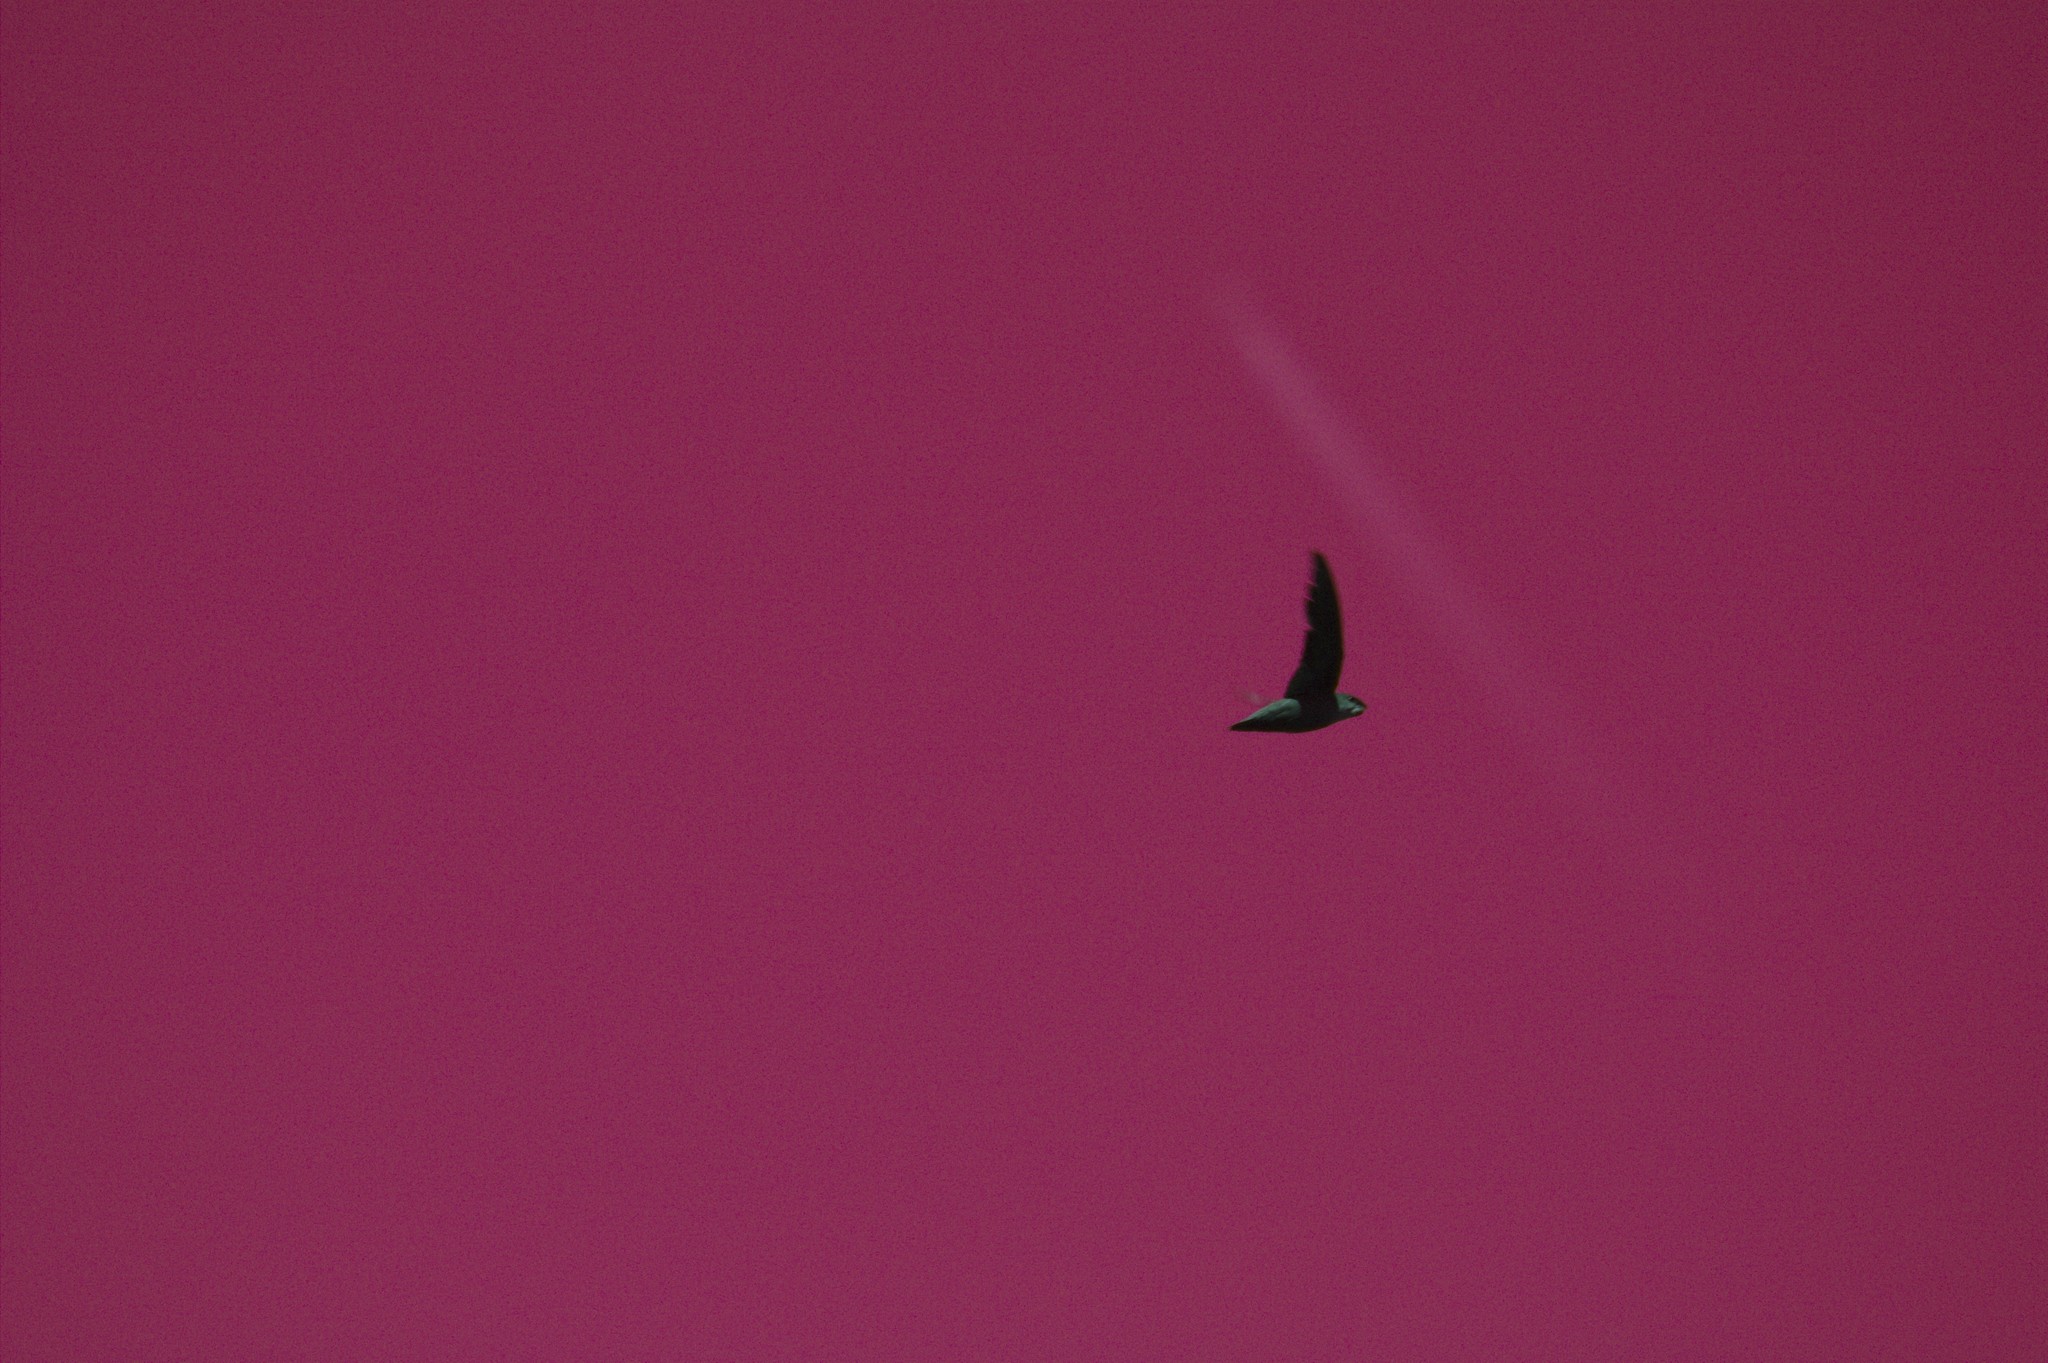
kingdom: Animalia
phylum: Chordata
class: Aves
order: Apodiformes
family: Apodidae
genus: Chaetura
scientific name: Chaetura pelagica
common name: Chimney swift
